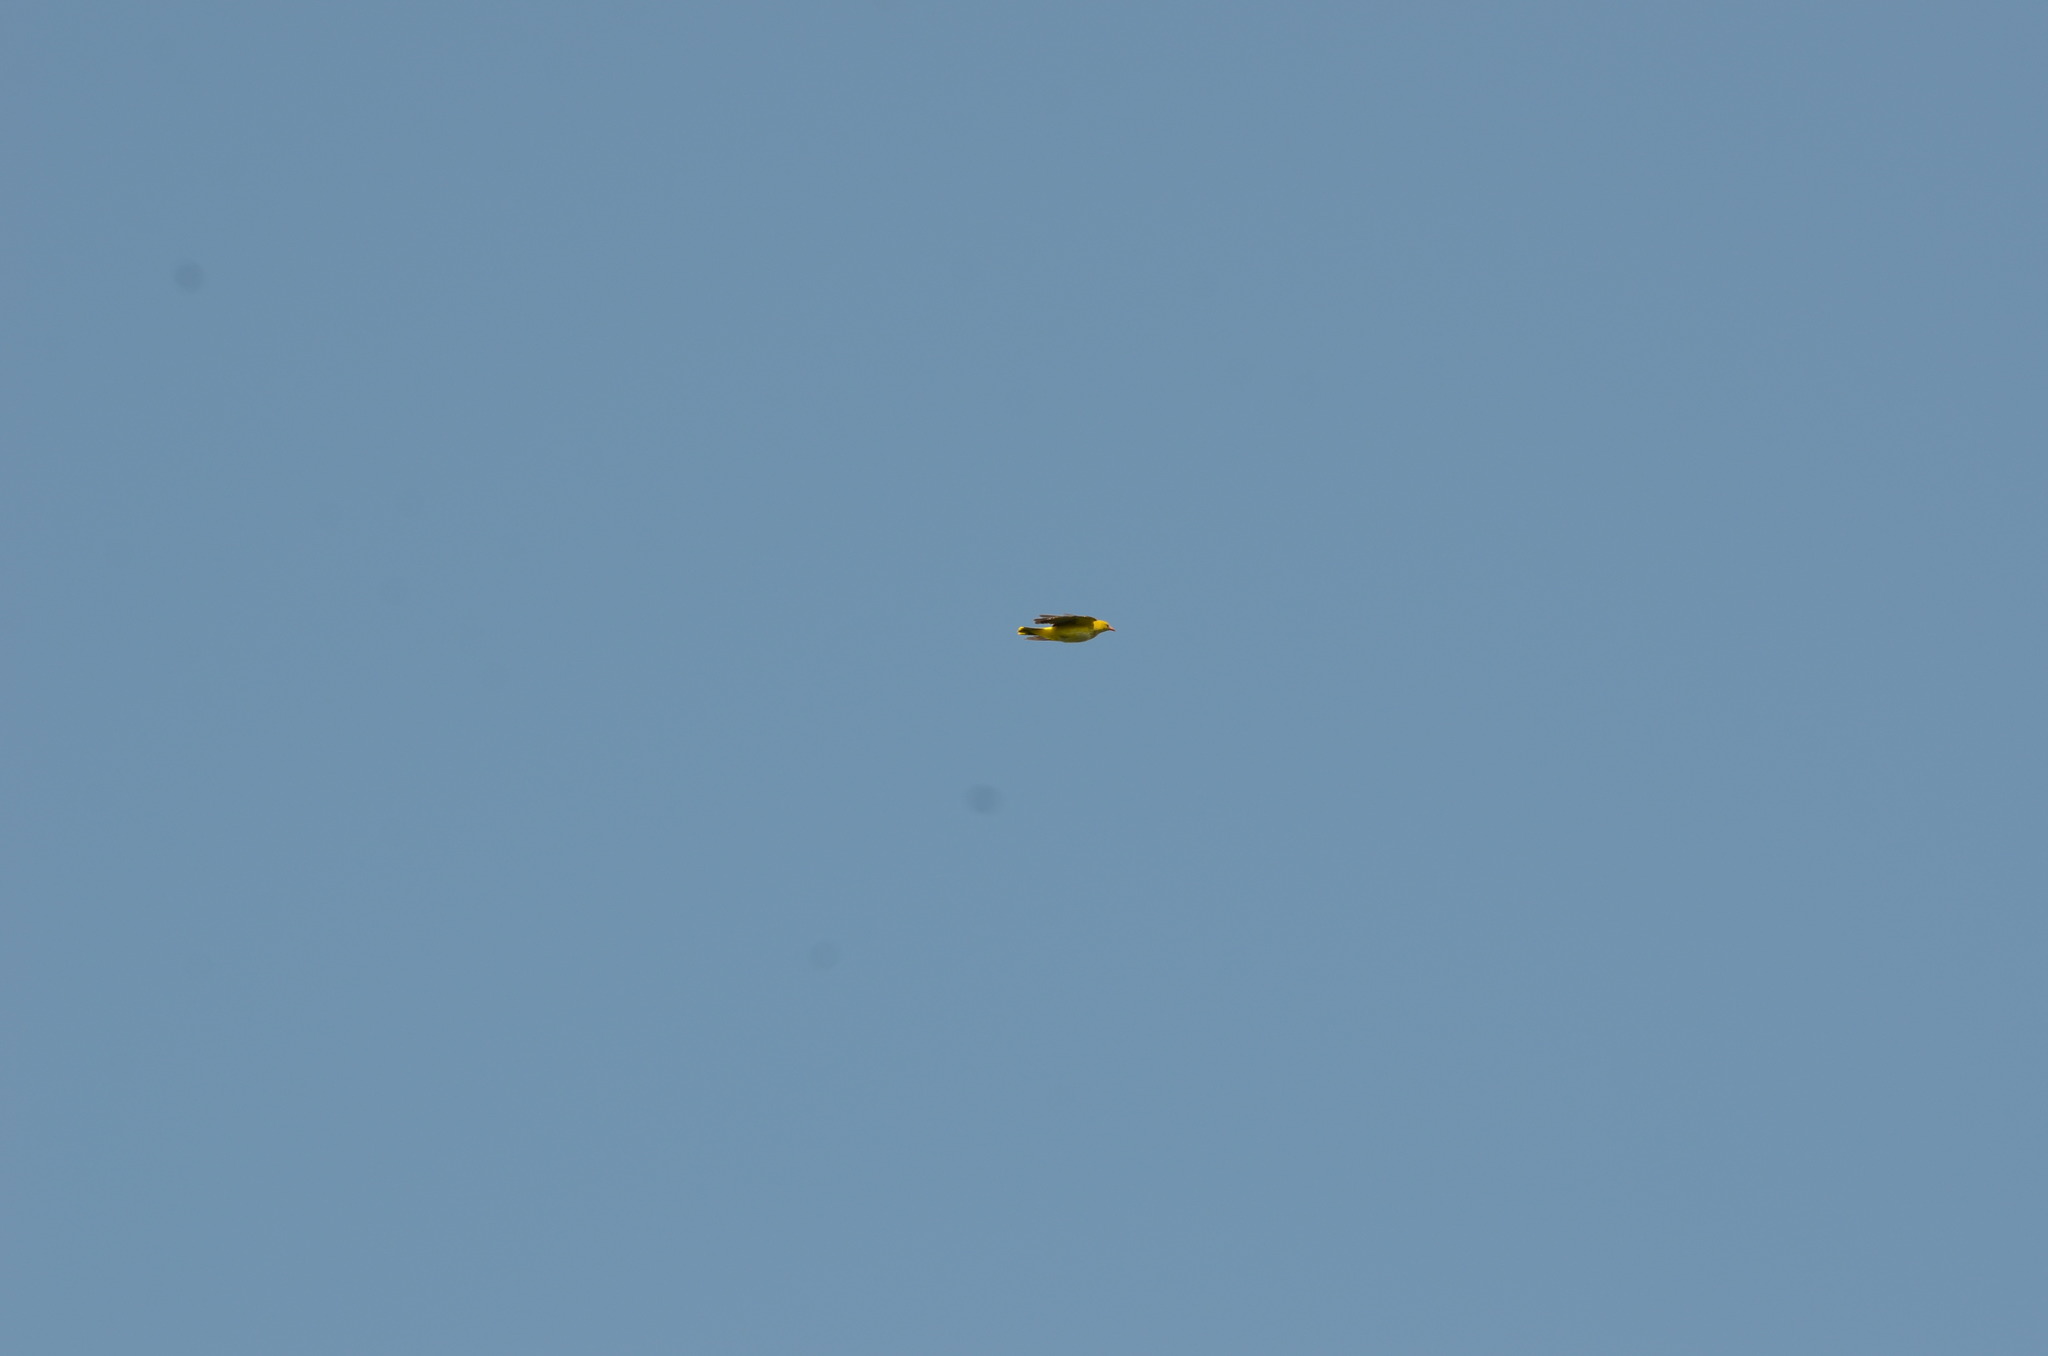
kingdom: Animalia
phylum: Chordata
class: Aves
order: Passeriformes
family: Oriolidae
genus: Oriolus
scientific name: Oriolus oriolus
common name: Eurasian golden oriole
